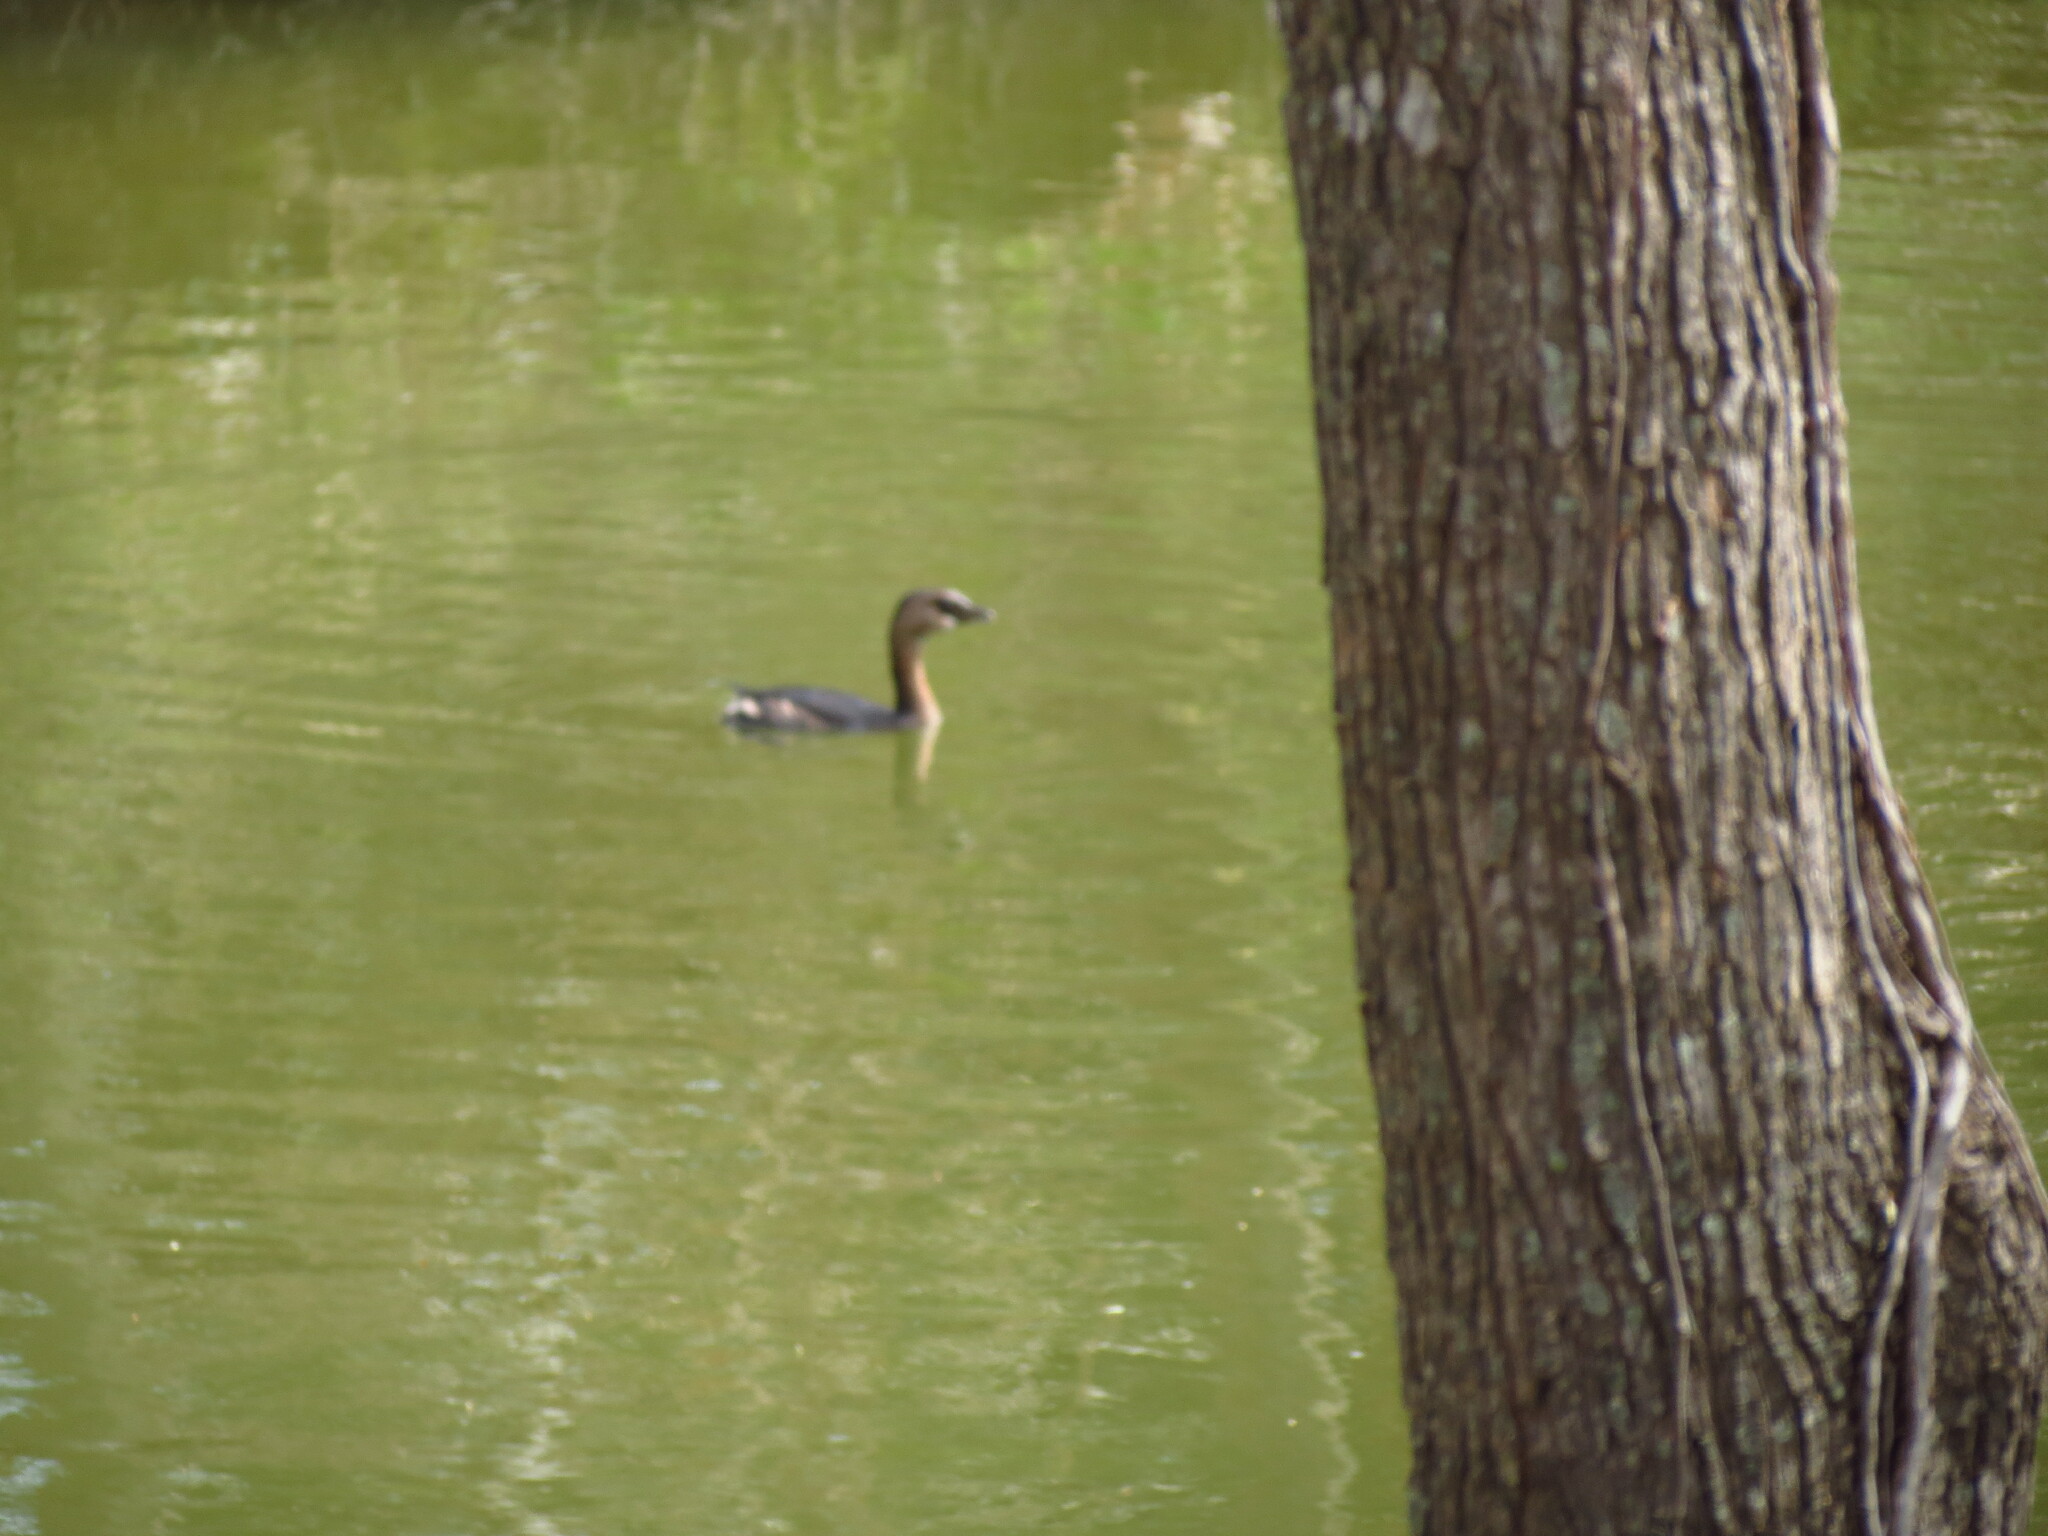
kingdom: Animalia
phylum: Chordata
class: Aves
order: Podicipediformes
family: Podicipedidae
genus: Podilymbus
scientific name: Podilymbus podiceps
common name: Pied-billed grebe
